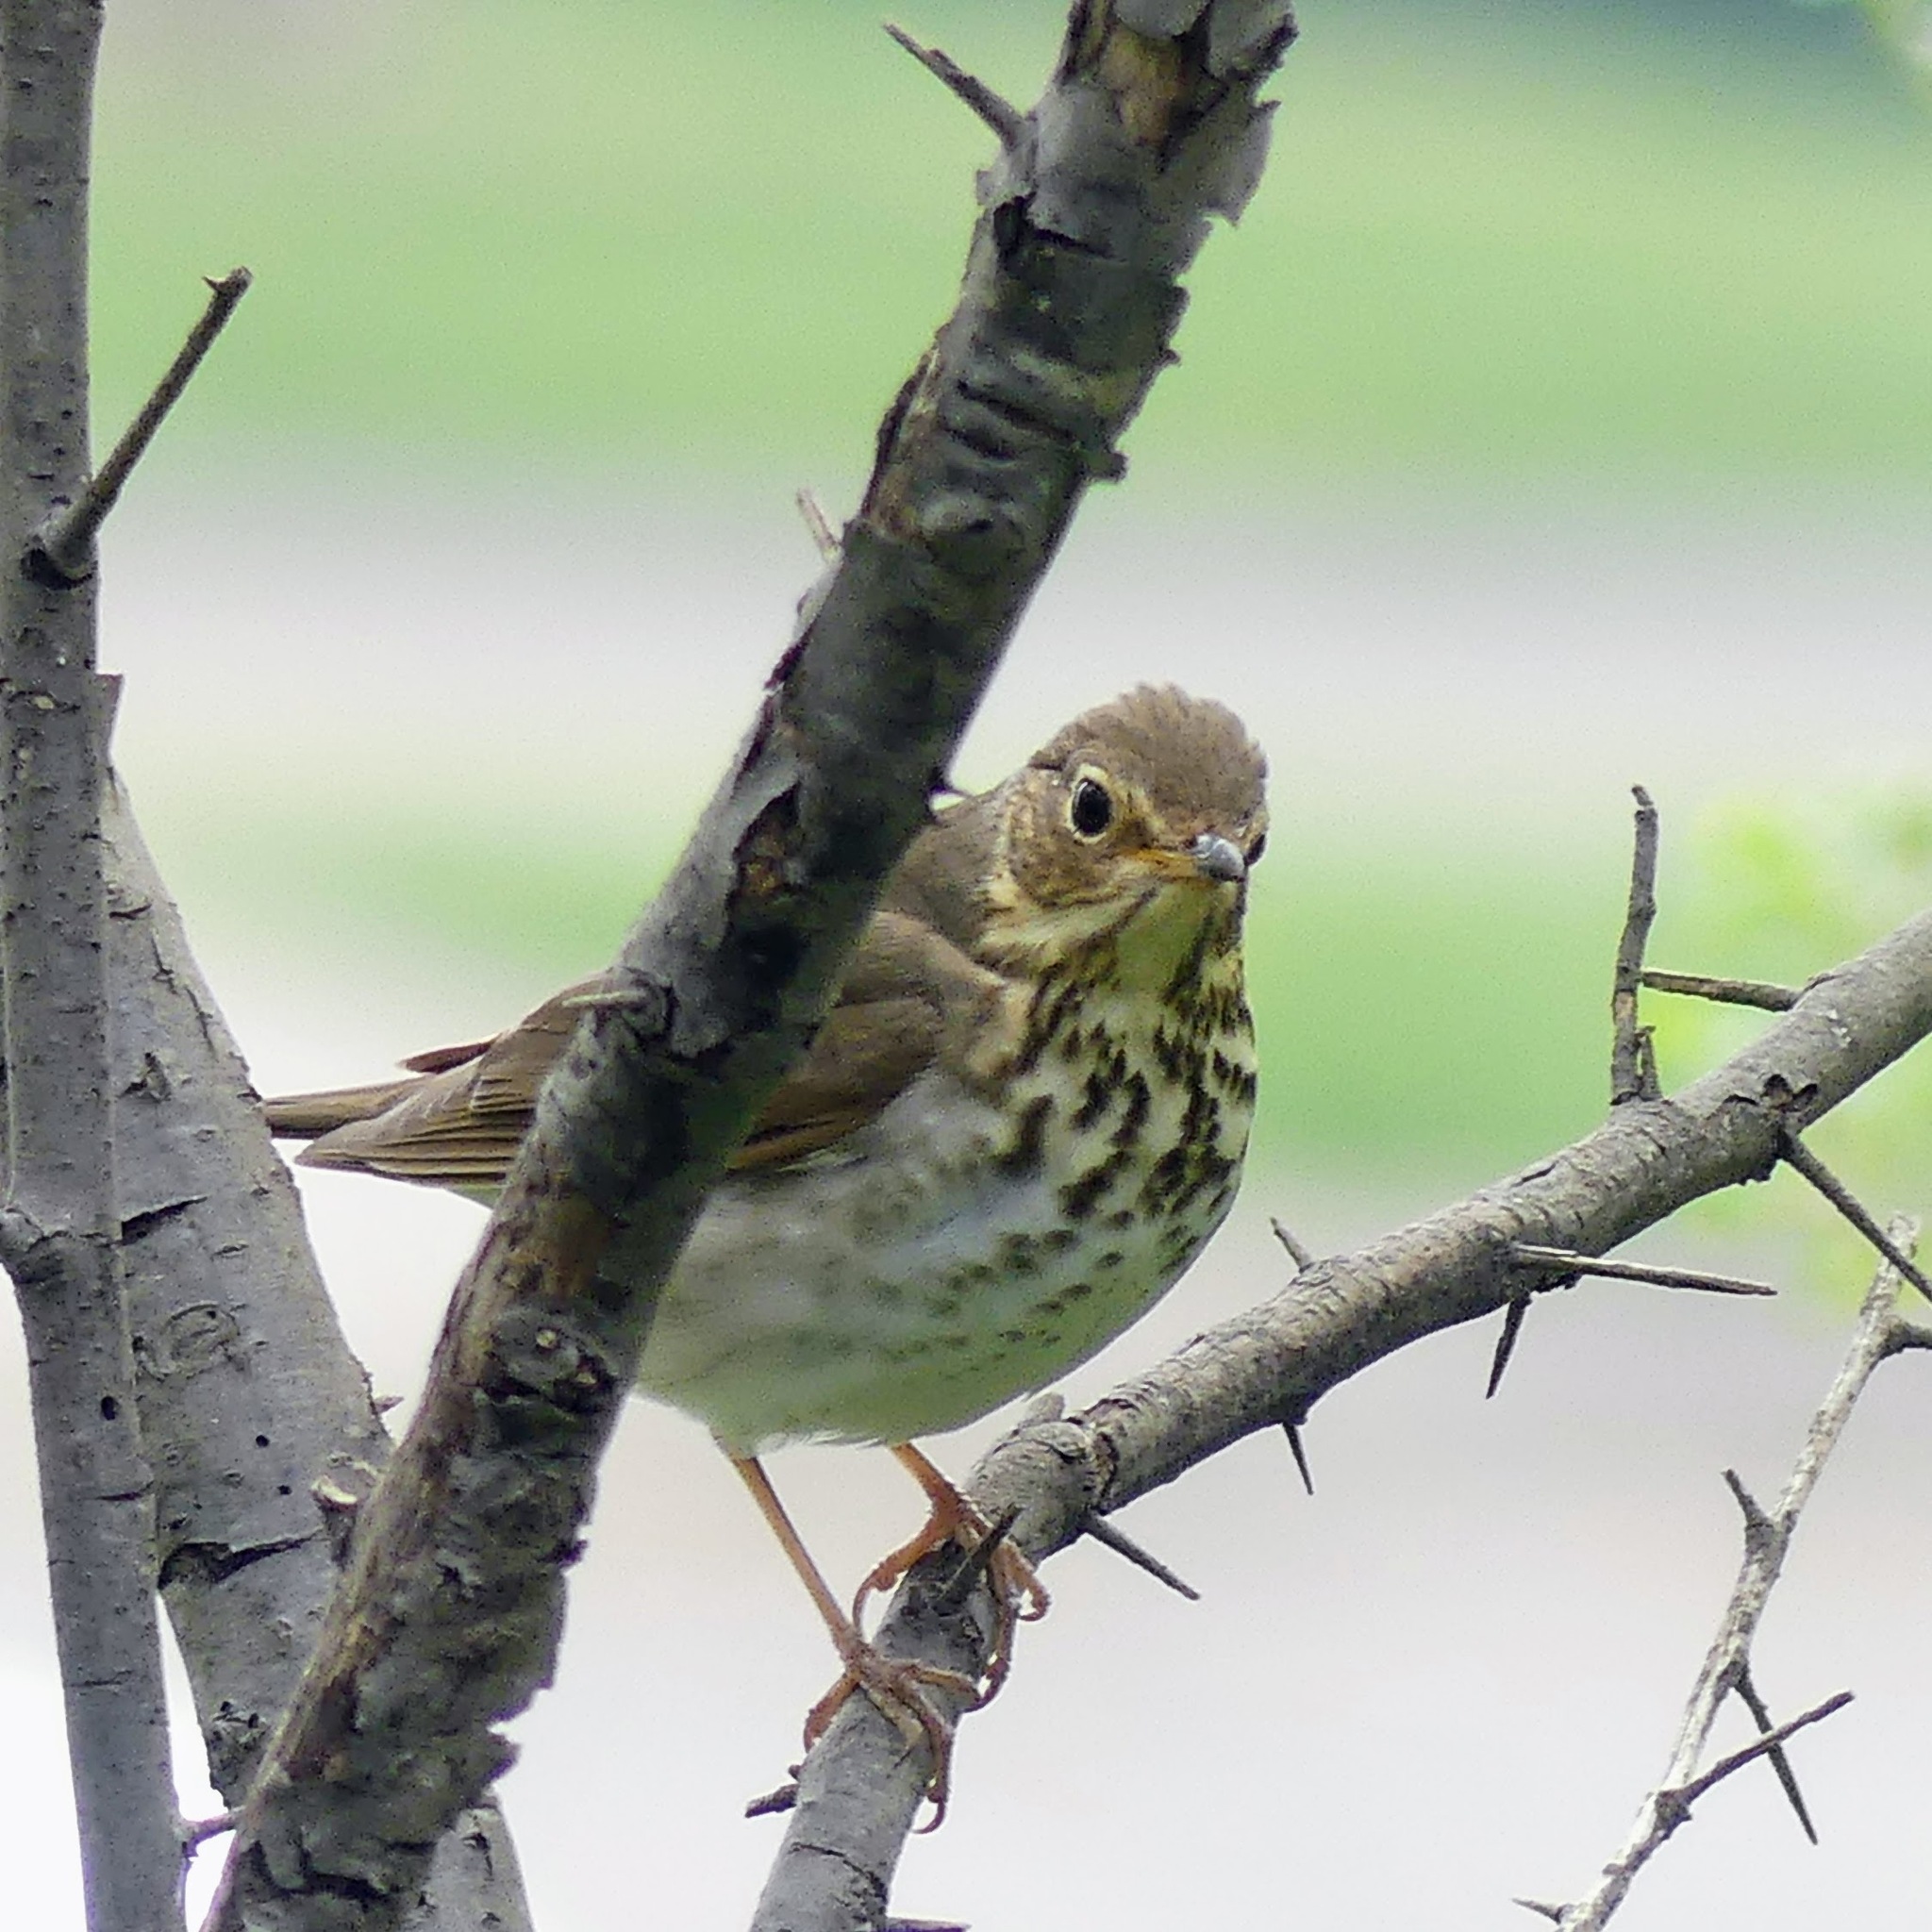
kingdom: Animalia
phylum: Chordata
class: Aves
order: Passeriformes
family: Turdidae
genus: Catharus
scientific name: Catharus ustulatus
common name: Swainson's thrush
